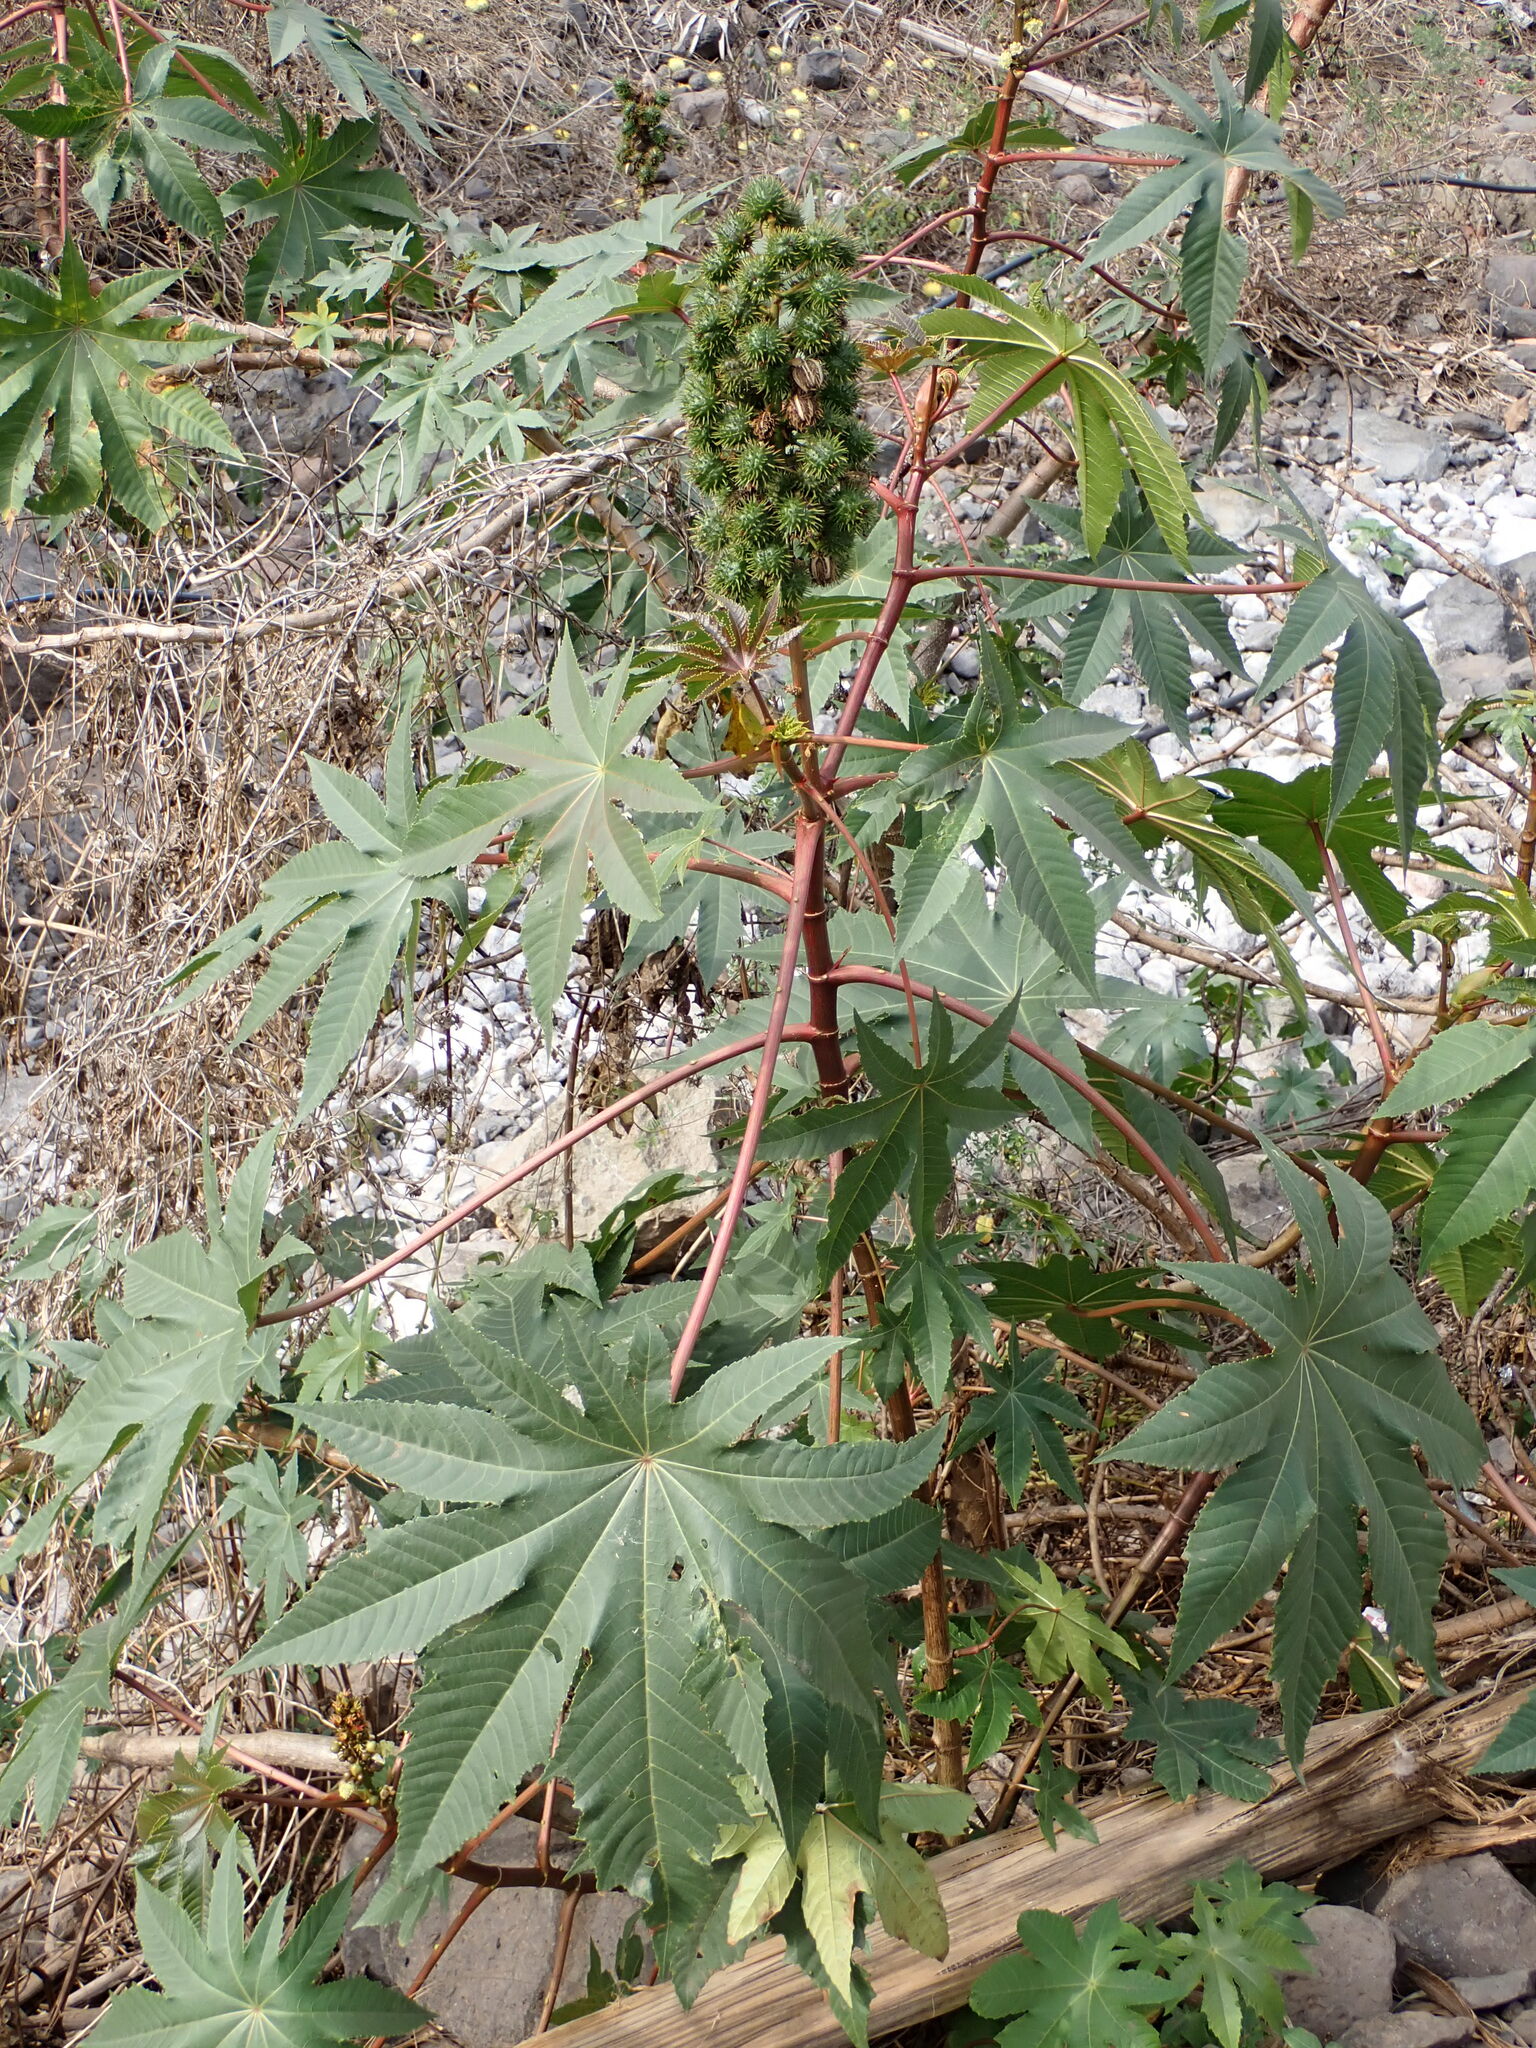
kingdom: Plantae
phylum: Tracheophyta
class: Magnoliopsida
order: Malpighiales
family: Euphorbiaceae
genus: Ricinus
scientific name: Ricinus communis
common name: Castor-oil-plant
